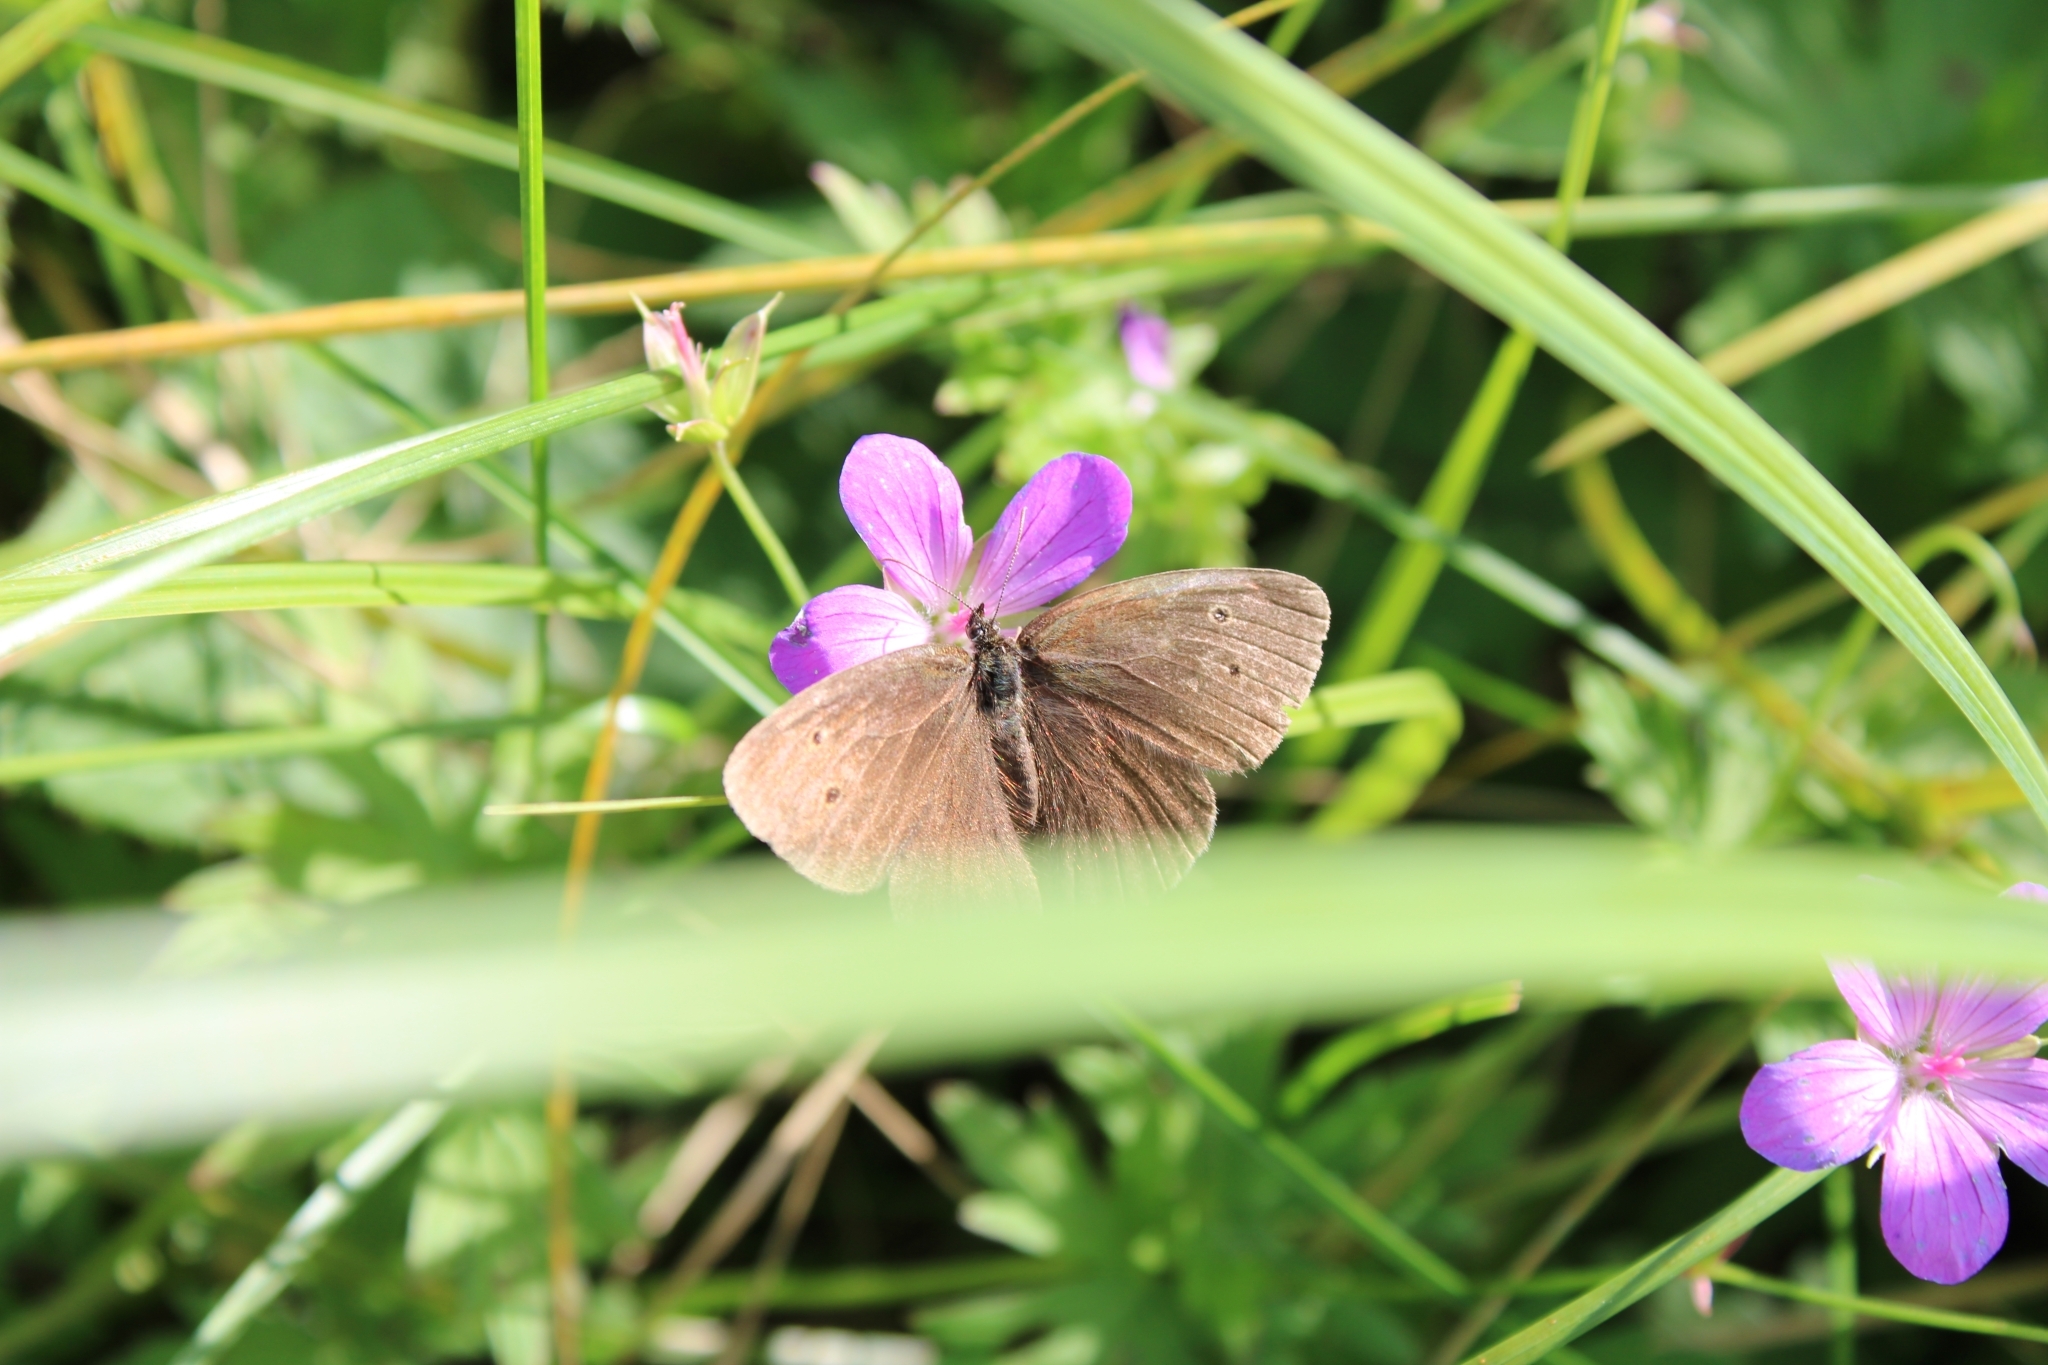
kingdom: Animalia
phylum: Arthropoda
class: Insecta
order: Lepidoptera
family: Nymphalidae
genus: Aphantopus
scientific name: Aphantopus hyperantus
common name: Ringlet
